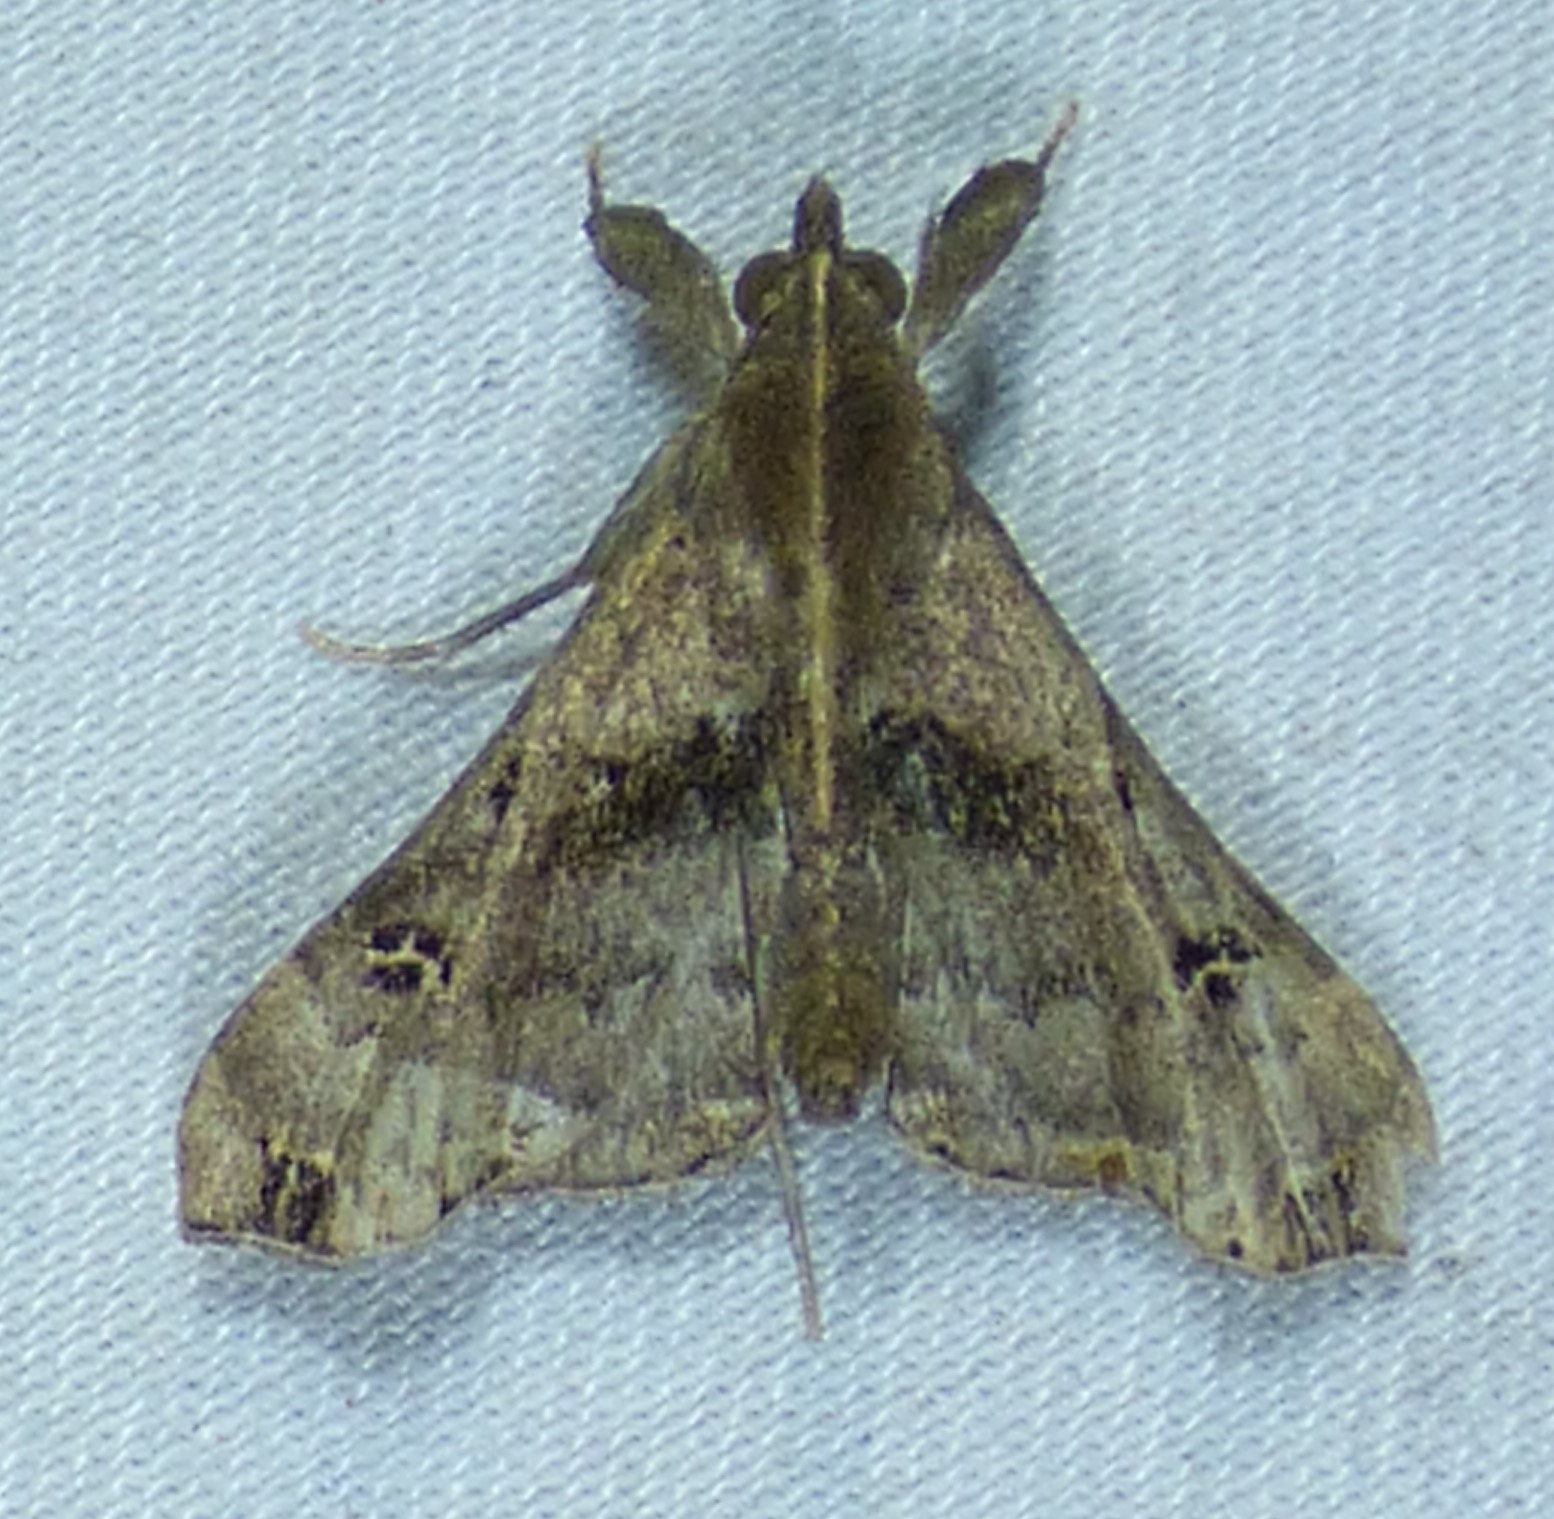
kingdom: Animalia
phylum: Arthropoda
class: Insecta
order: Lepidoptera
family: Erebidae
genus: Palthis
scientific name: Palthis asopialis
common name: Faint-spotted palthis moth
